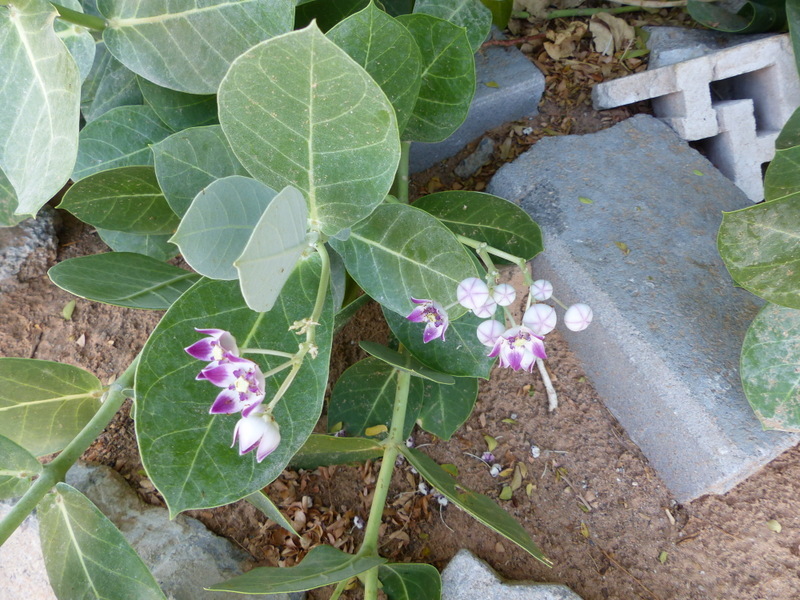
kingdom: Plantae
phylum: Tracheophyta
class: Magnoliopsida
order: Gentianales
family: Apocynaceae
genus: Calotropis
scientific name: Calotropis procera
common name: Roostertree
